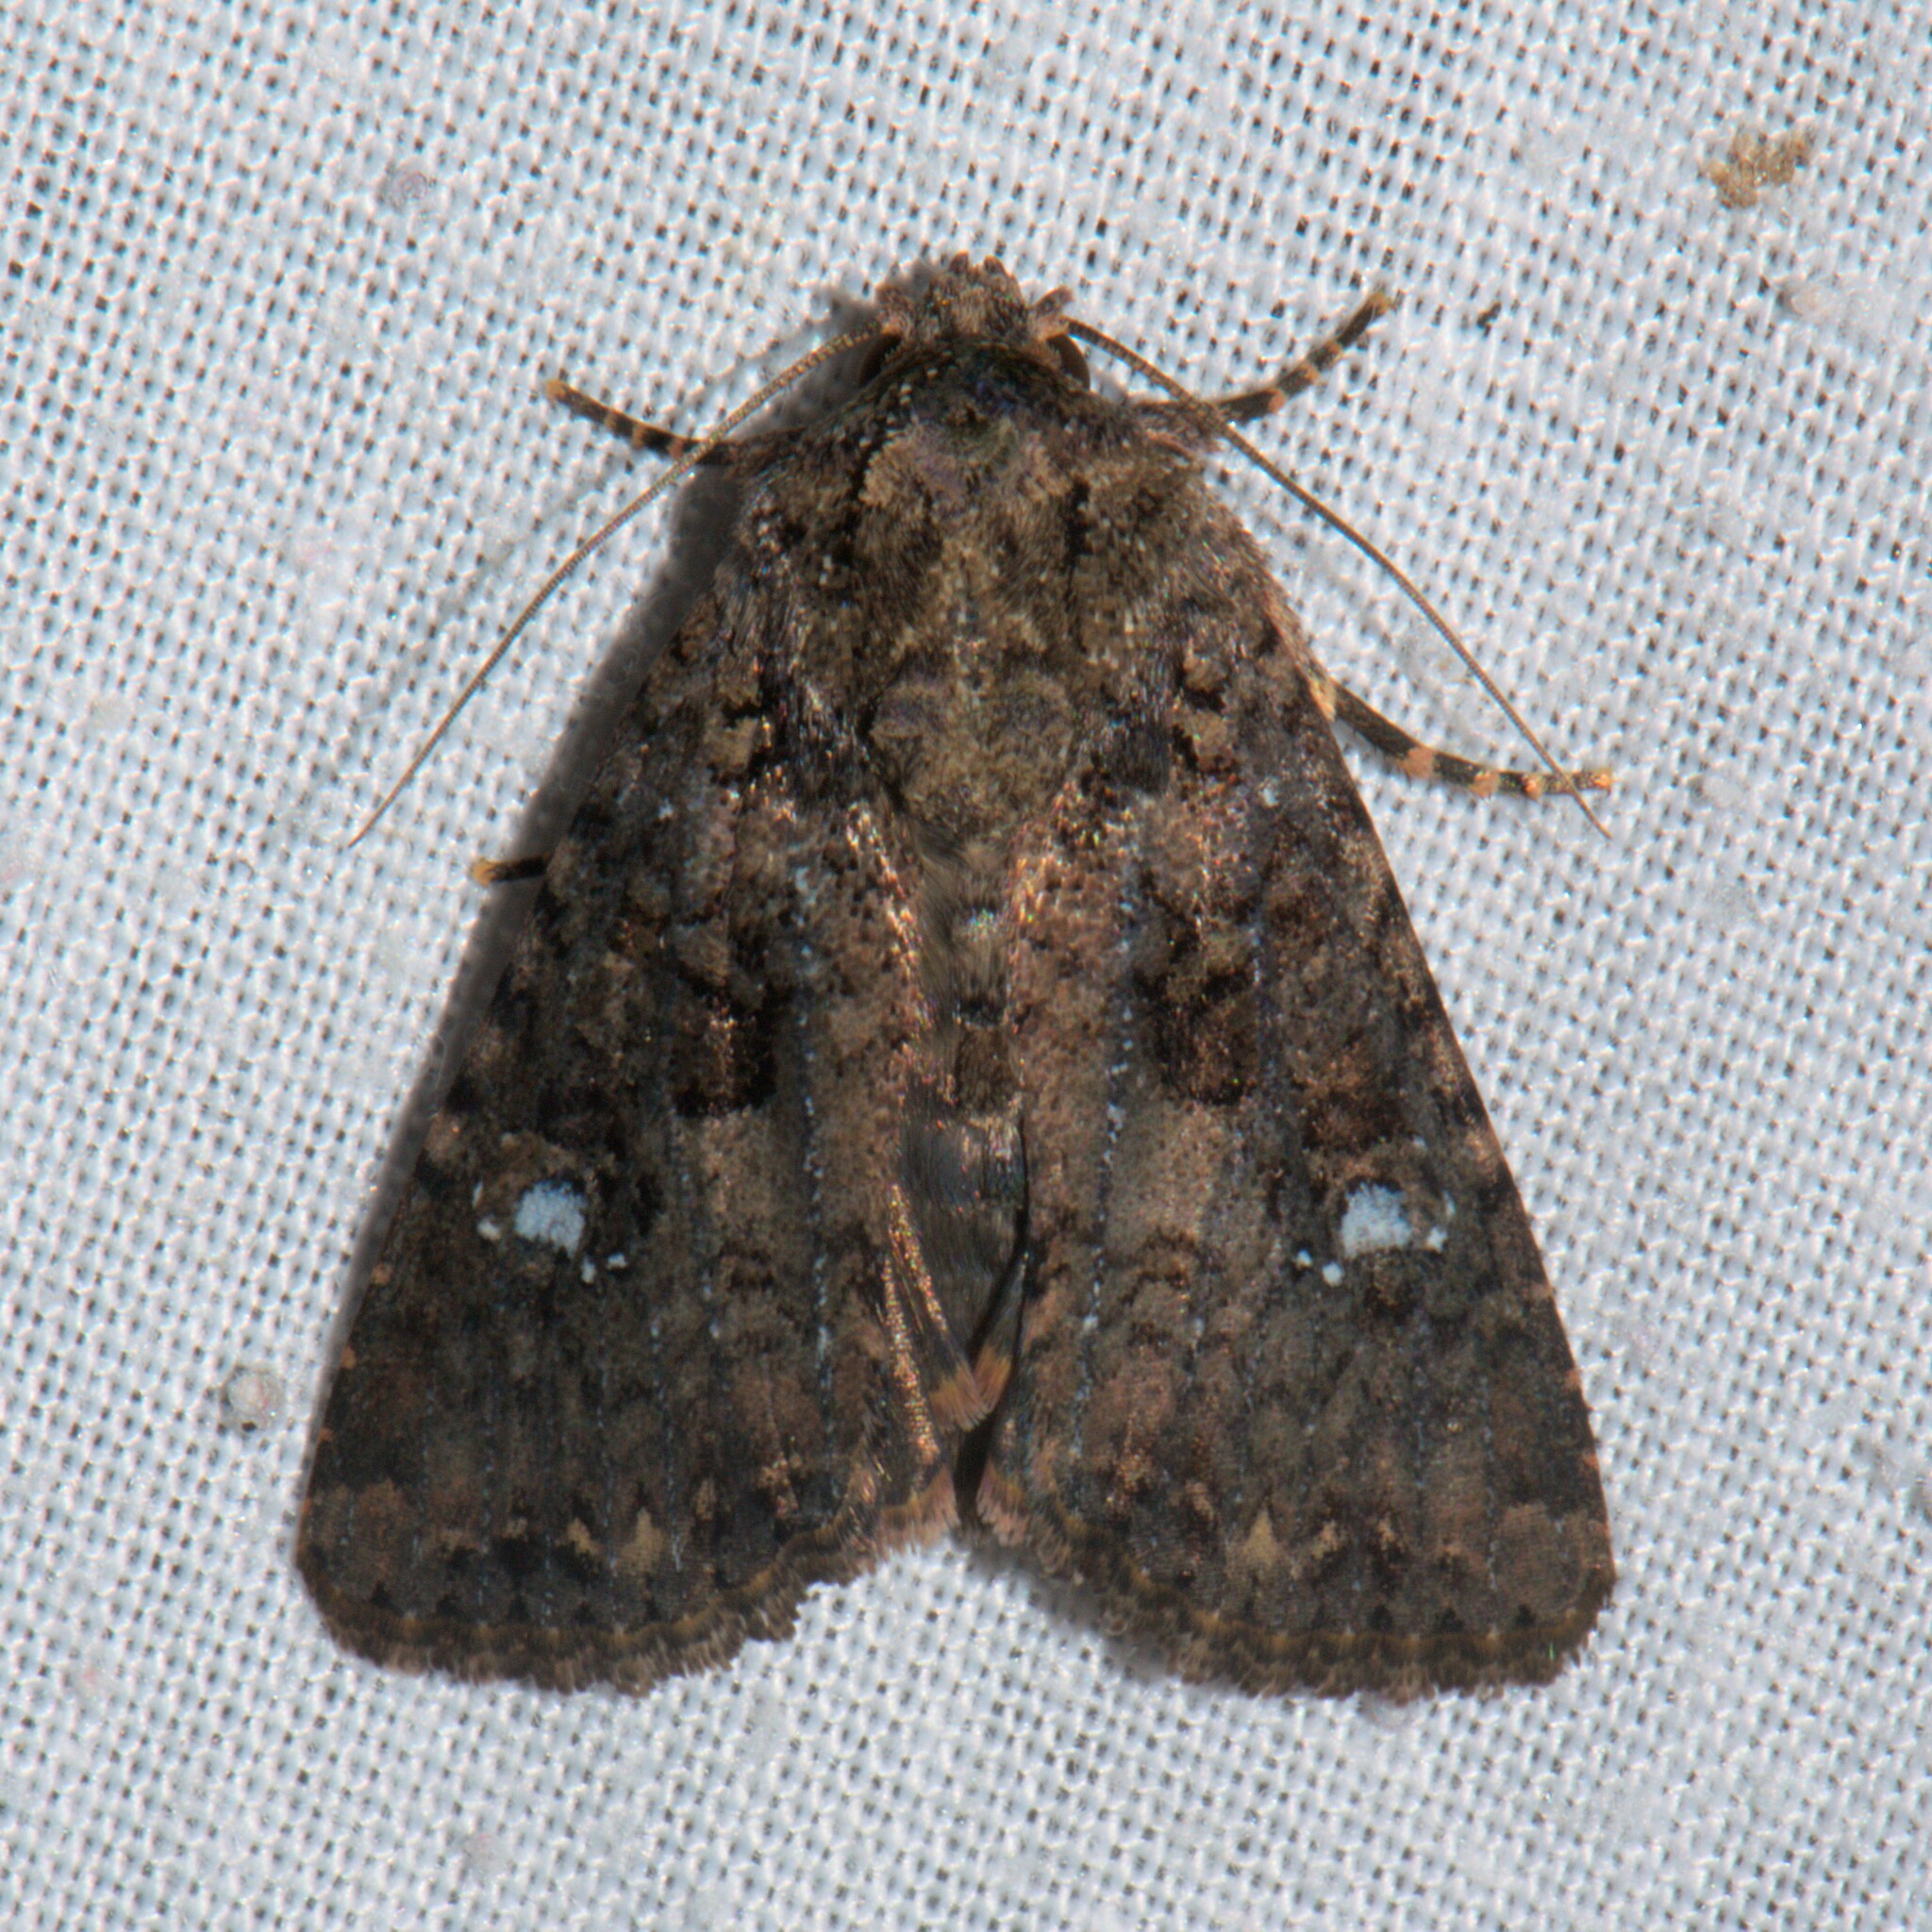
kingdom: Animalia
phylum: Arthropoda
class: Insecta
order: Lepidoptera
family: Noctuidae
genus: Feliniopsis
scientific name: Feliniopsis siderifera
